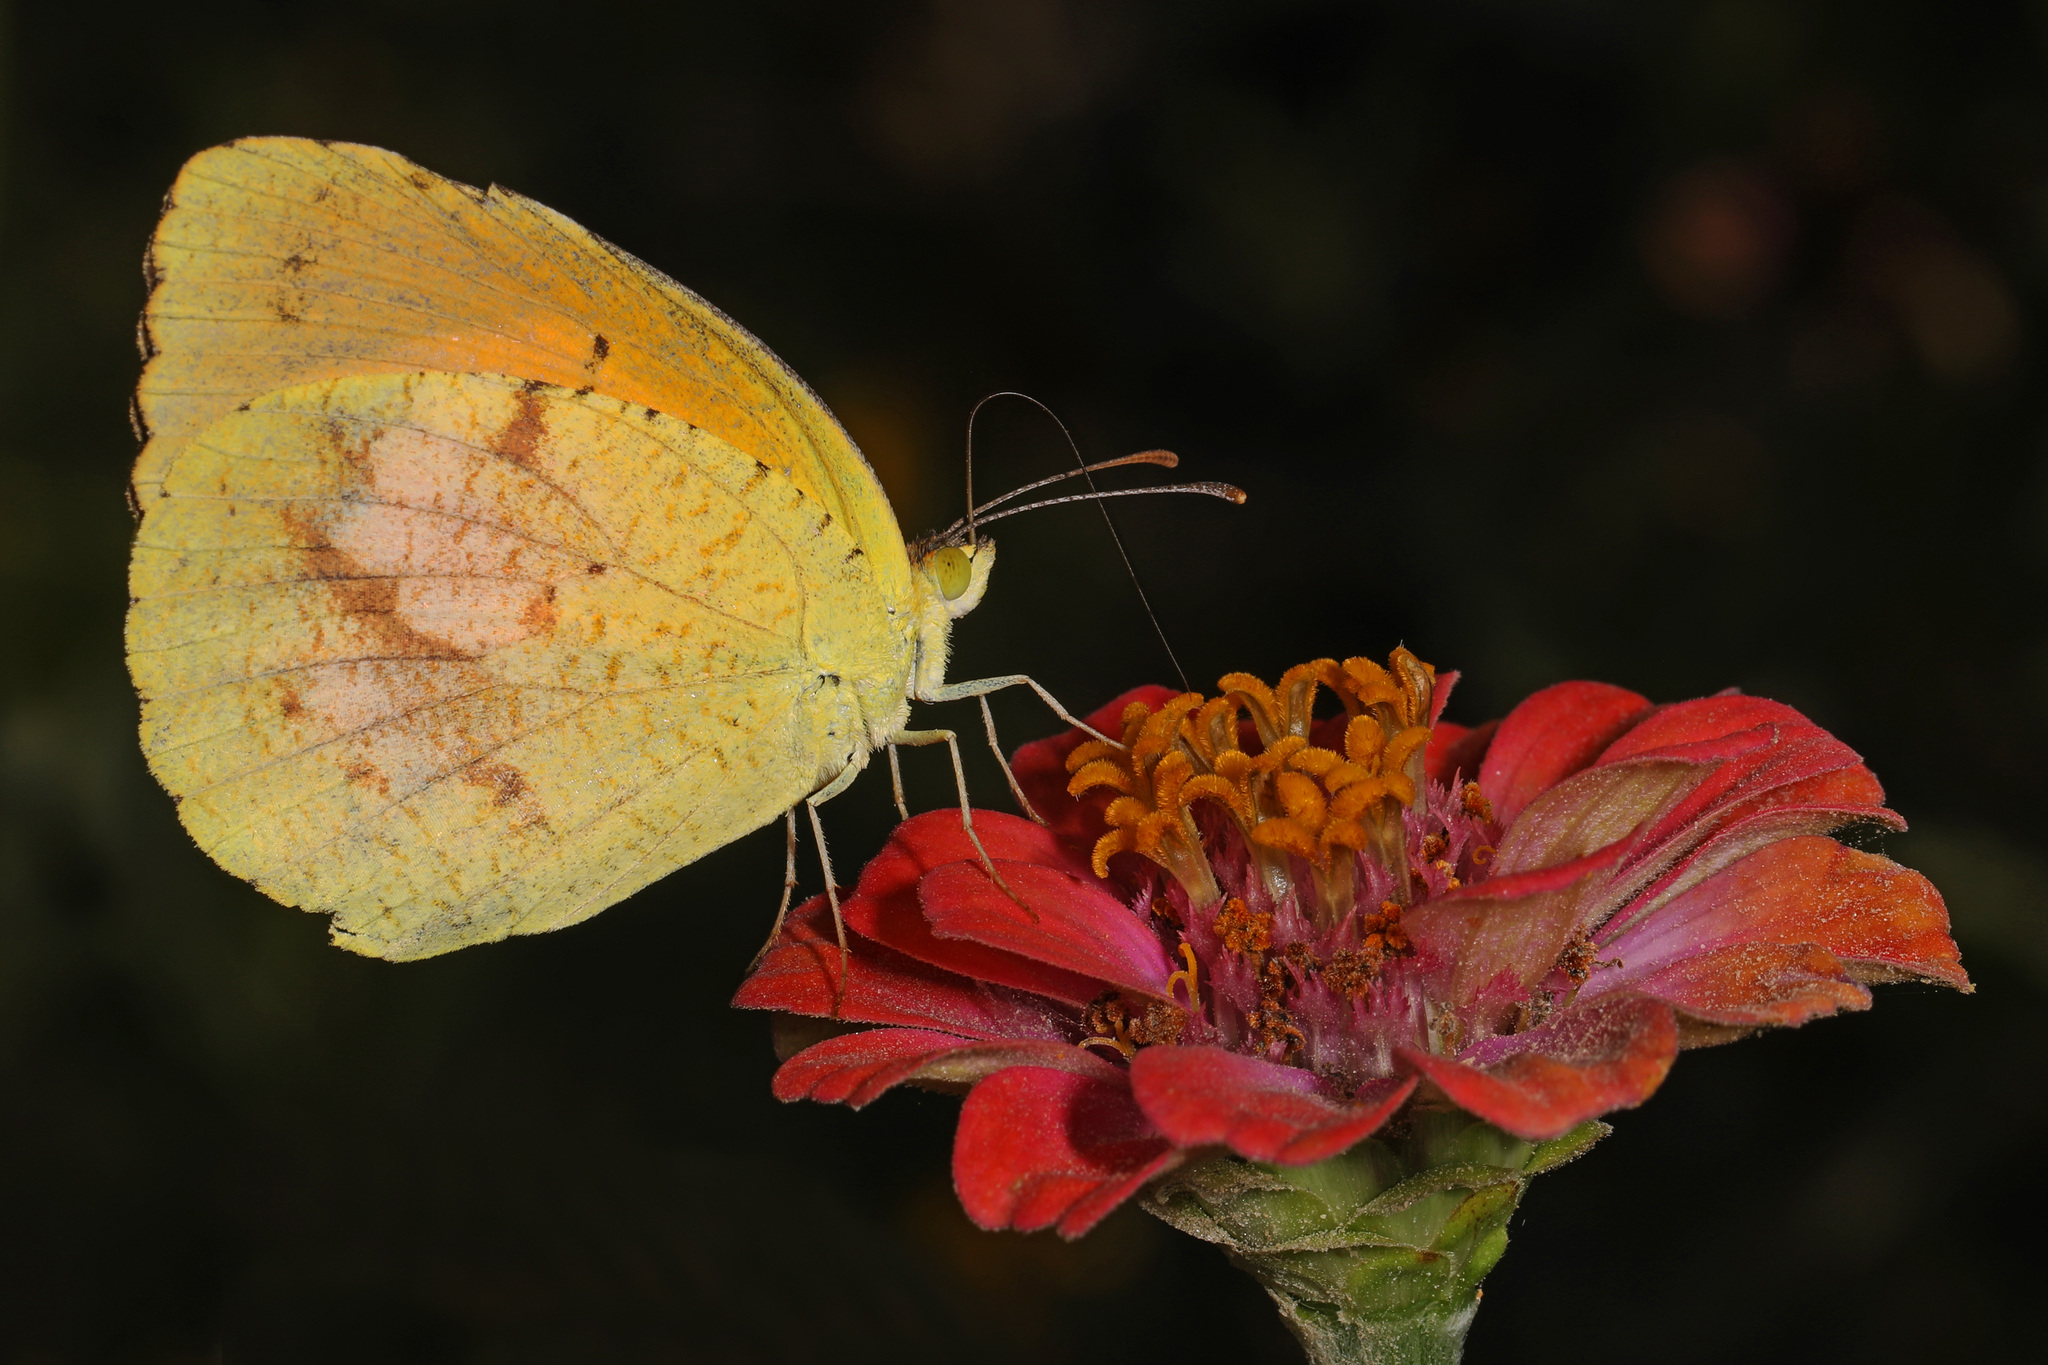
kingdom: Animalia
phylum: Arthropoda
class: Insecta
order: Lepidoptera
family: Pieridae
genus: Abaeis
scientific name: Abaeis nicippe
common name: Sleepy orange
